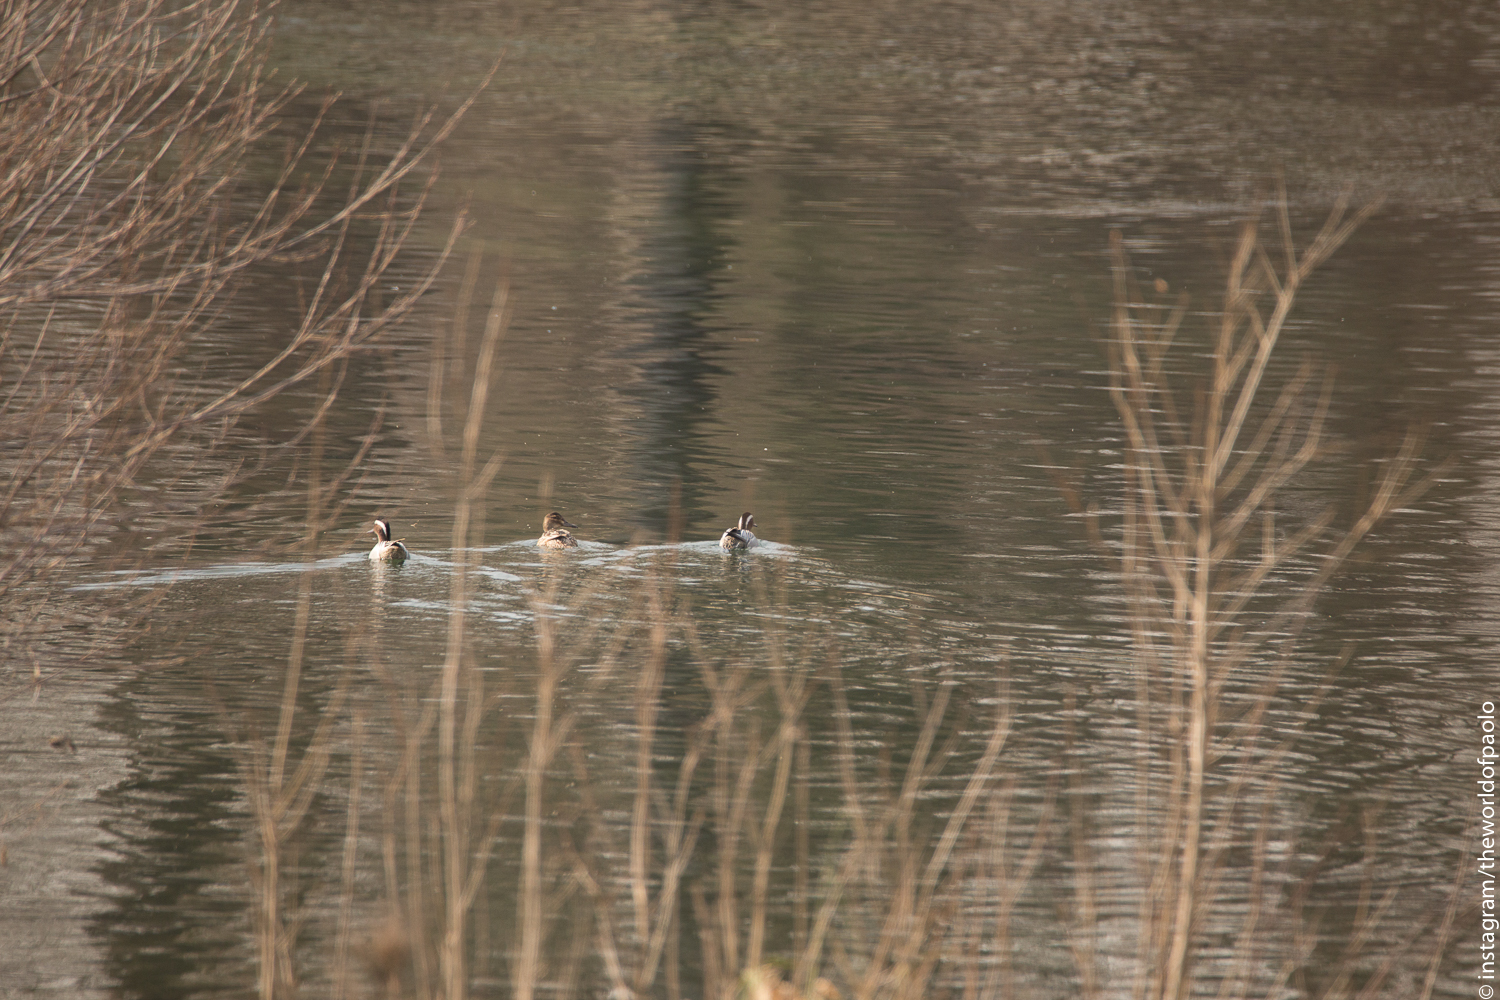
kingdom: Animalia
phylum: Chordata
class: Aves
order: Anseriformes
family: Anatidae
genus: Spatula
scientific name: Spatula querquedula
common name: Garganey
